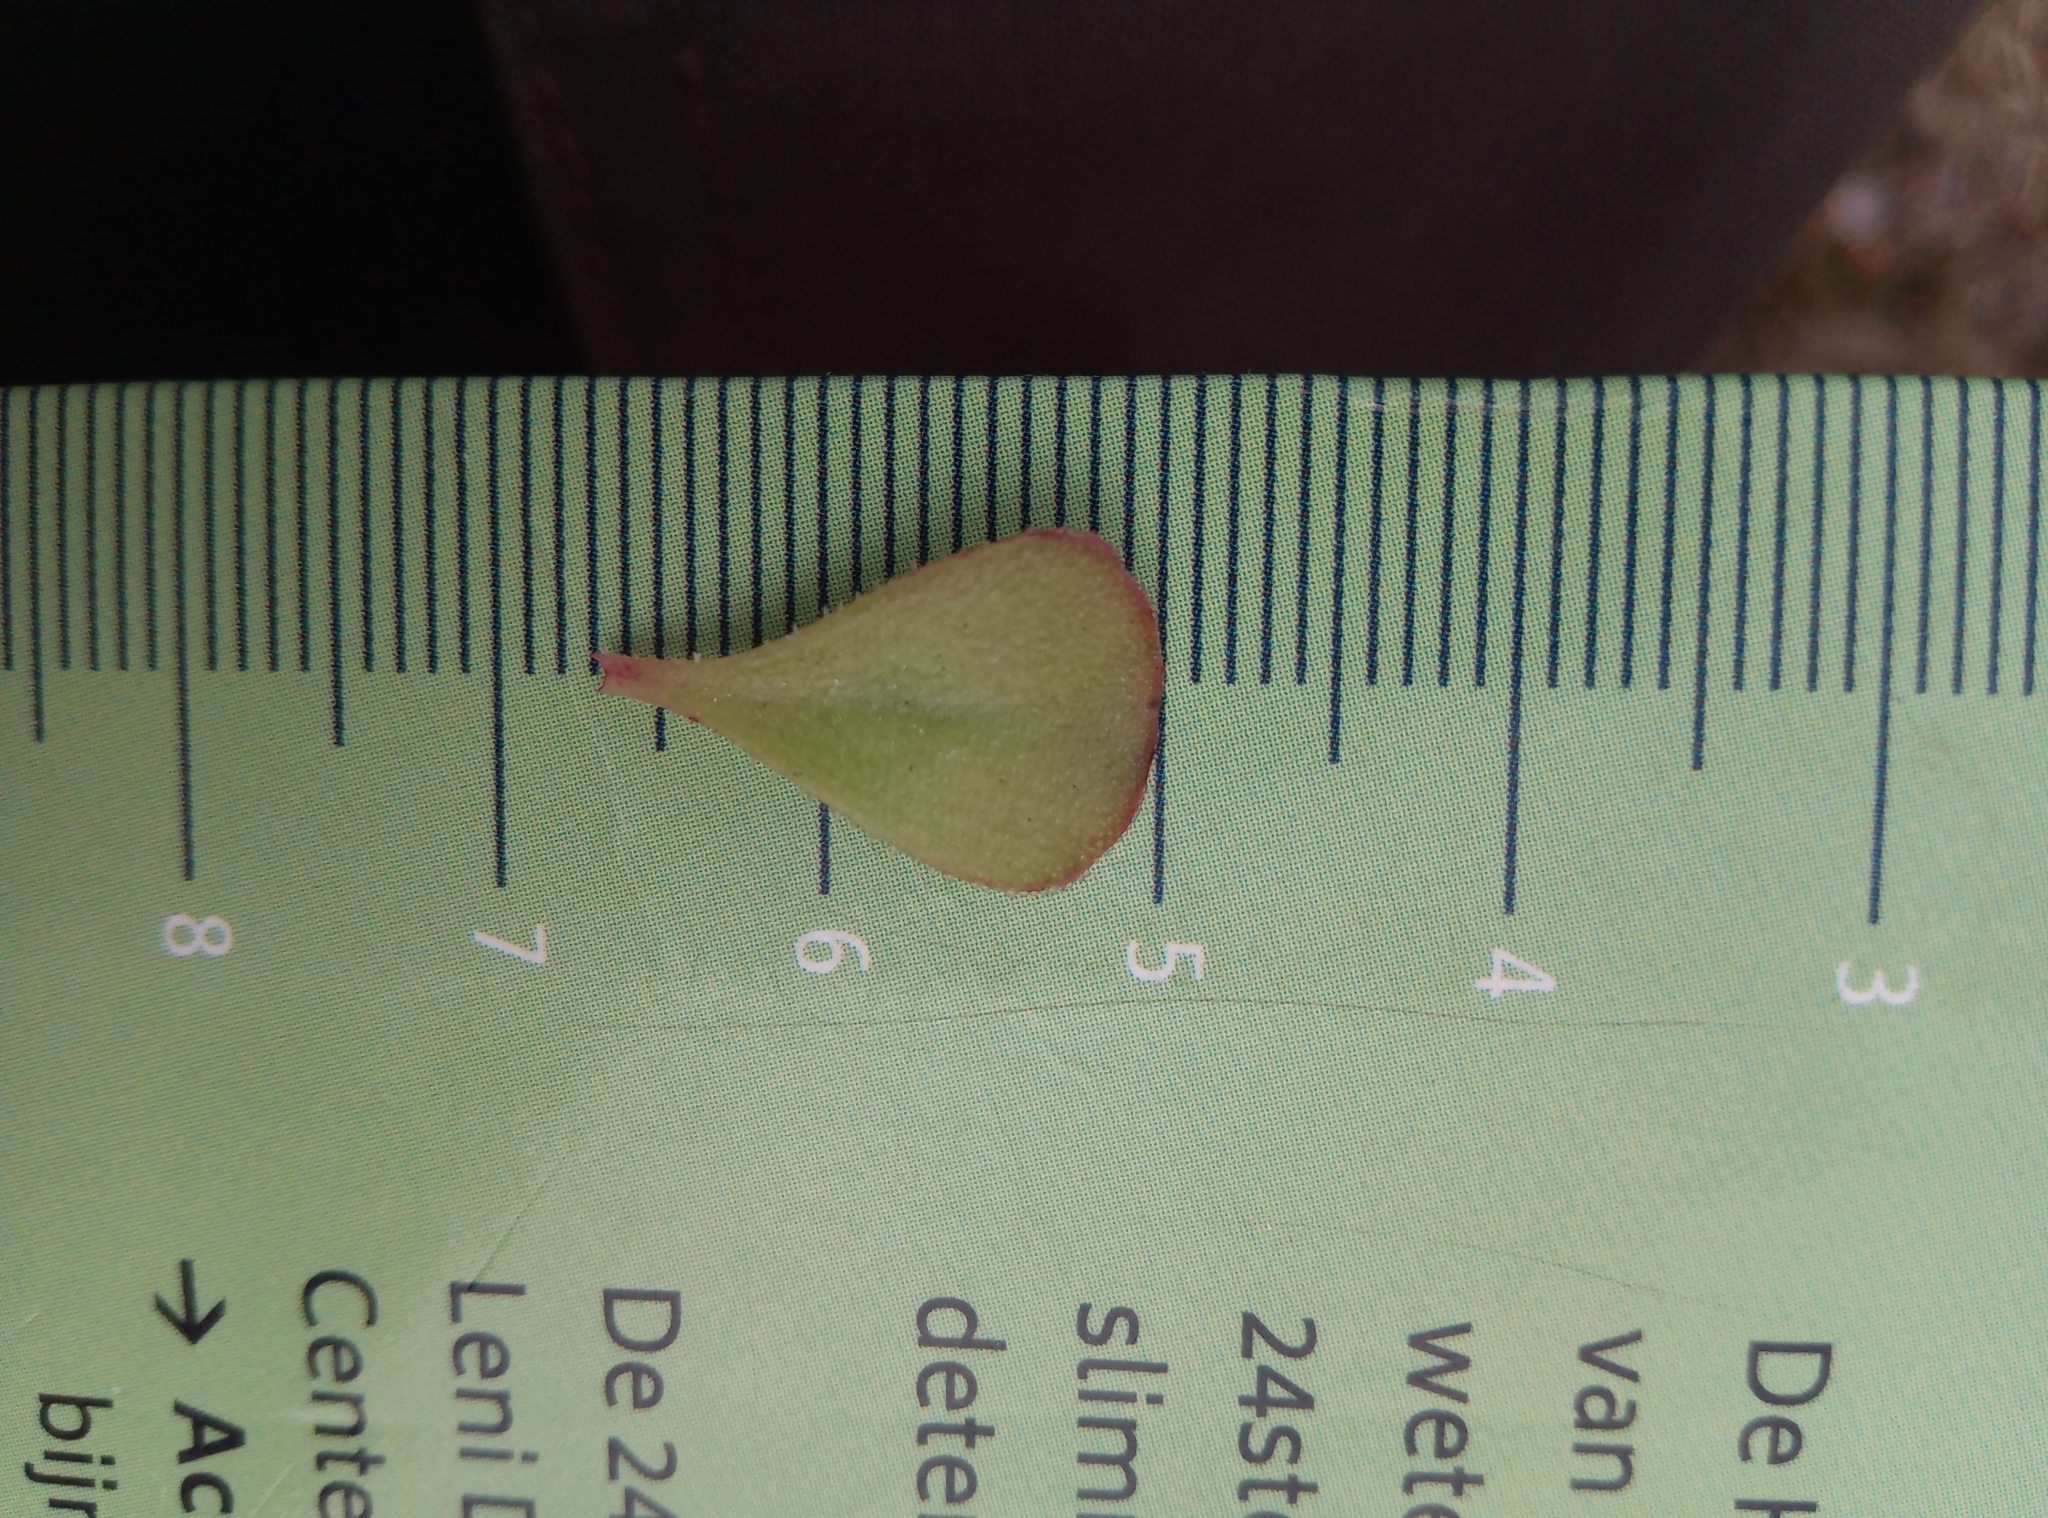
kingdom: Plantae
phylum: Tracheophyta
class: Magnoliopsida
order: Saxifragales
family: Crassulaceae
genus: Phedimus
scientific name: Phedimus spurius
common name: Caucasian stonecrop
